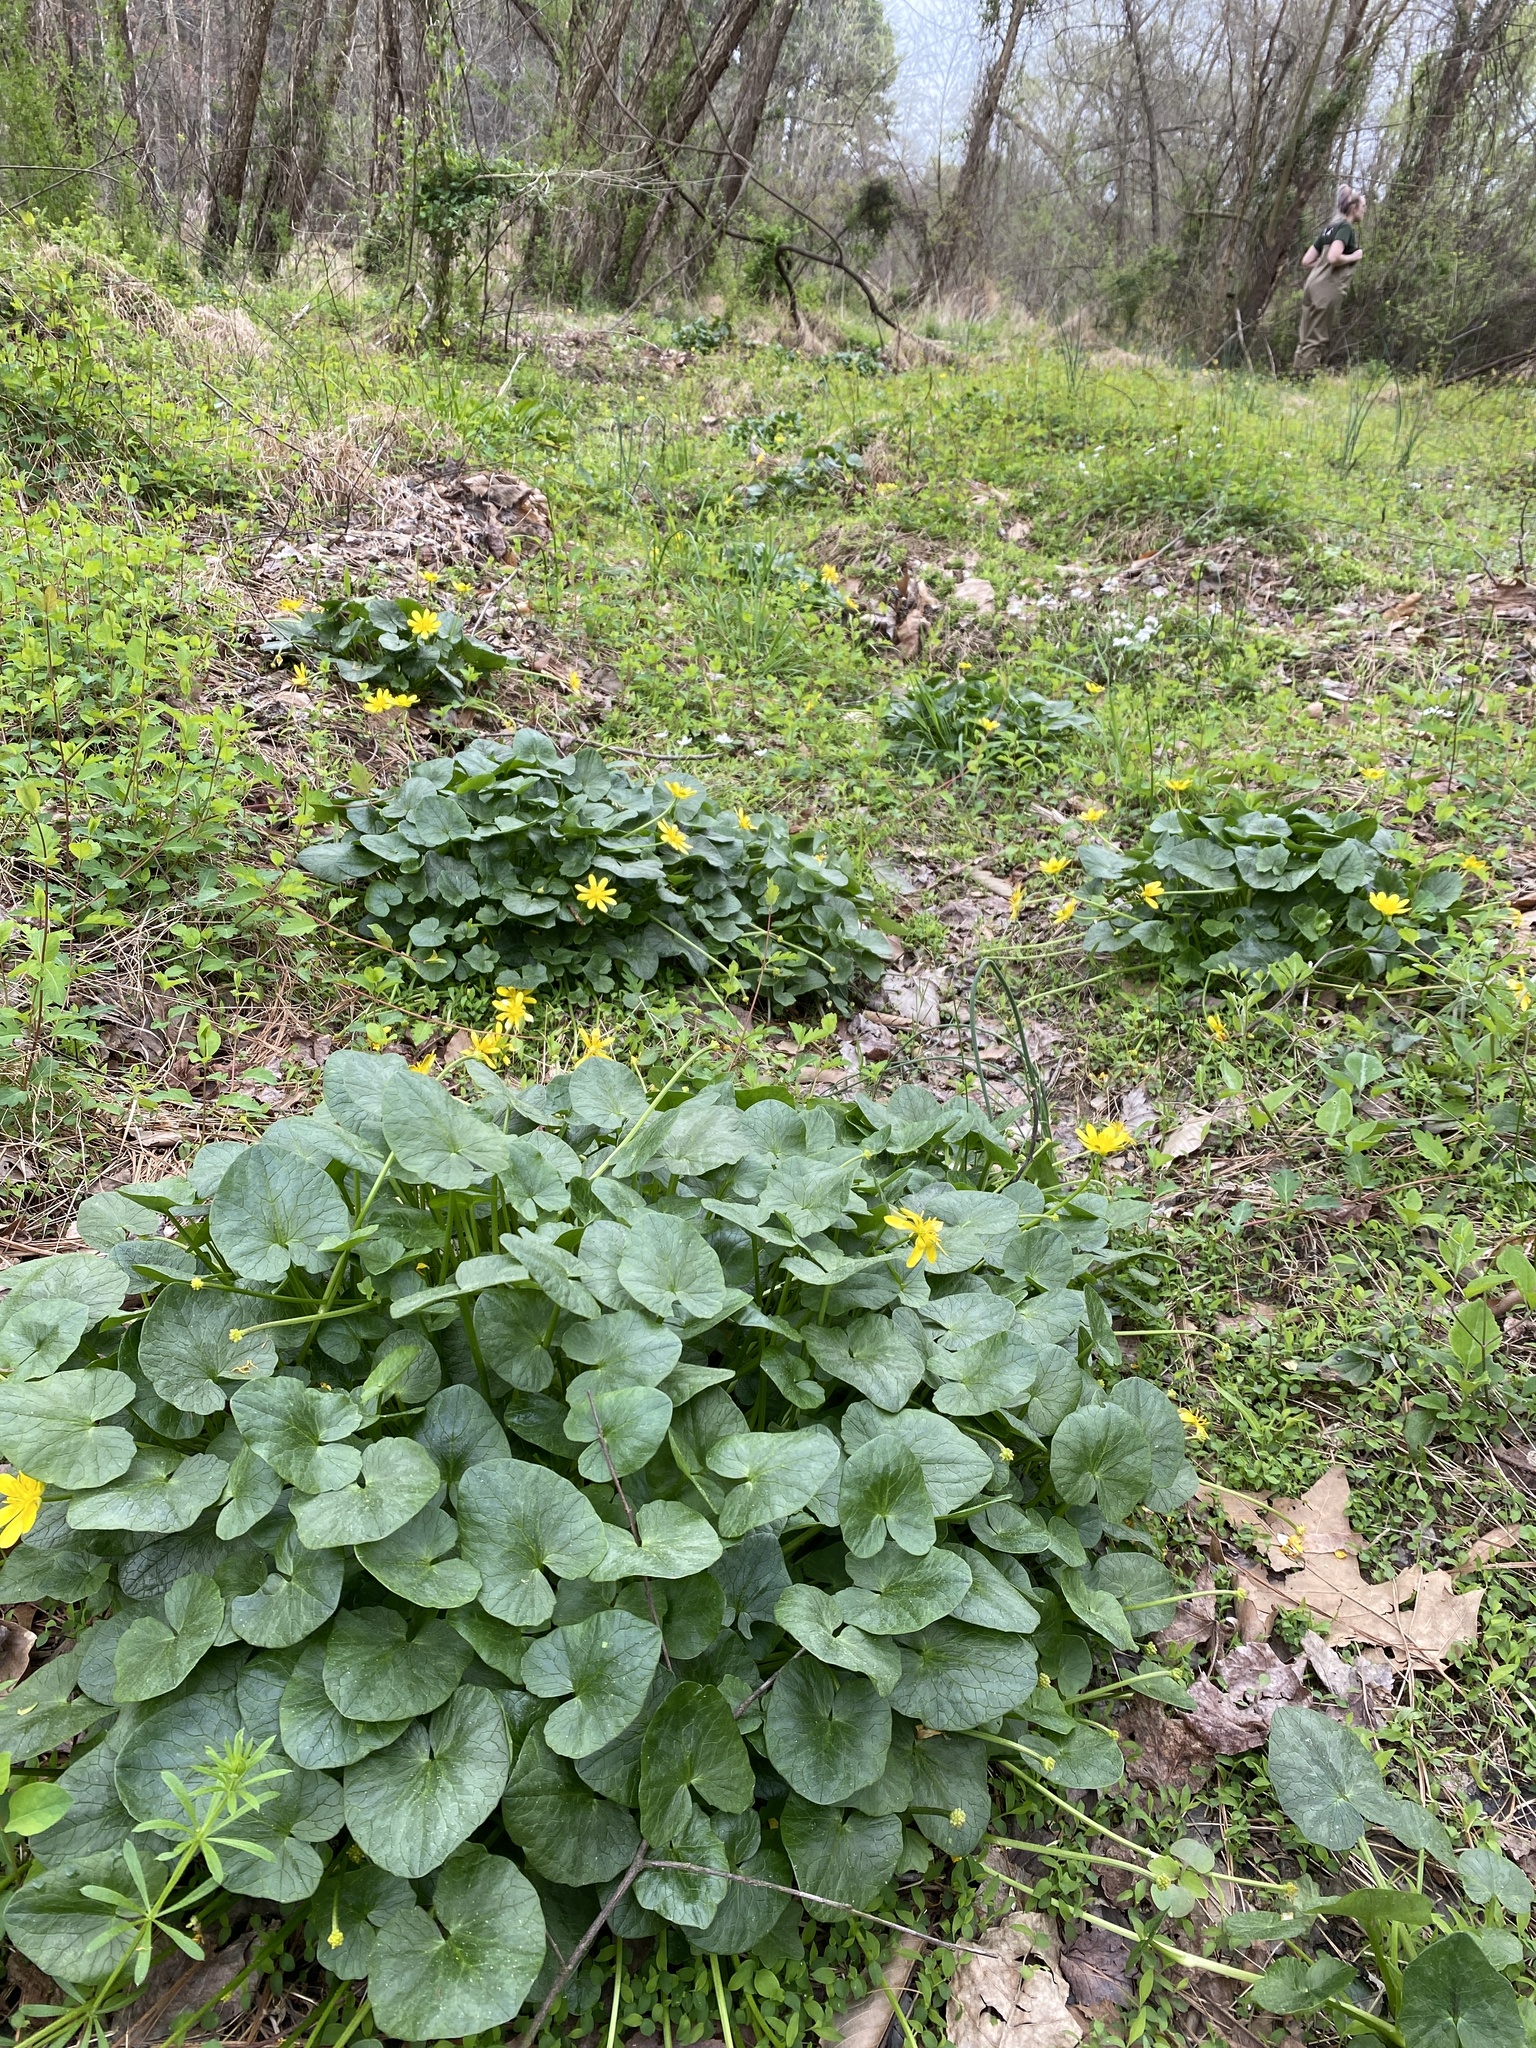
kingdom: Plantae
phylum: Tracheophyta
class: Magnoliopsida
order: Ranunculales
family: Ranunculaceae
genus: Ficaria
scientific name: Ficaria verna
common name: Lesser celandine
